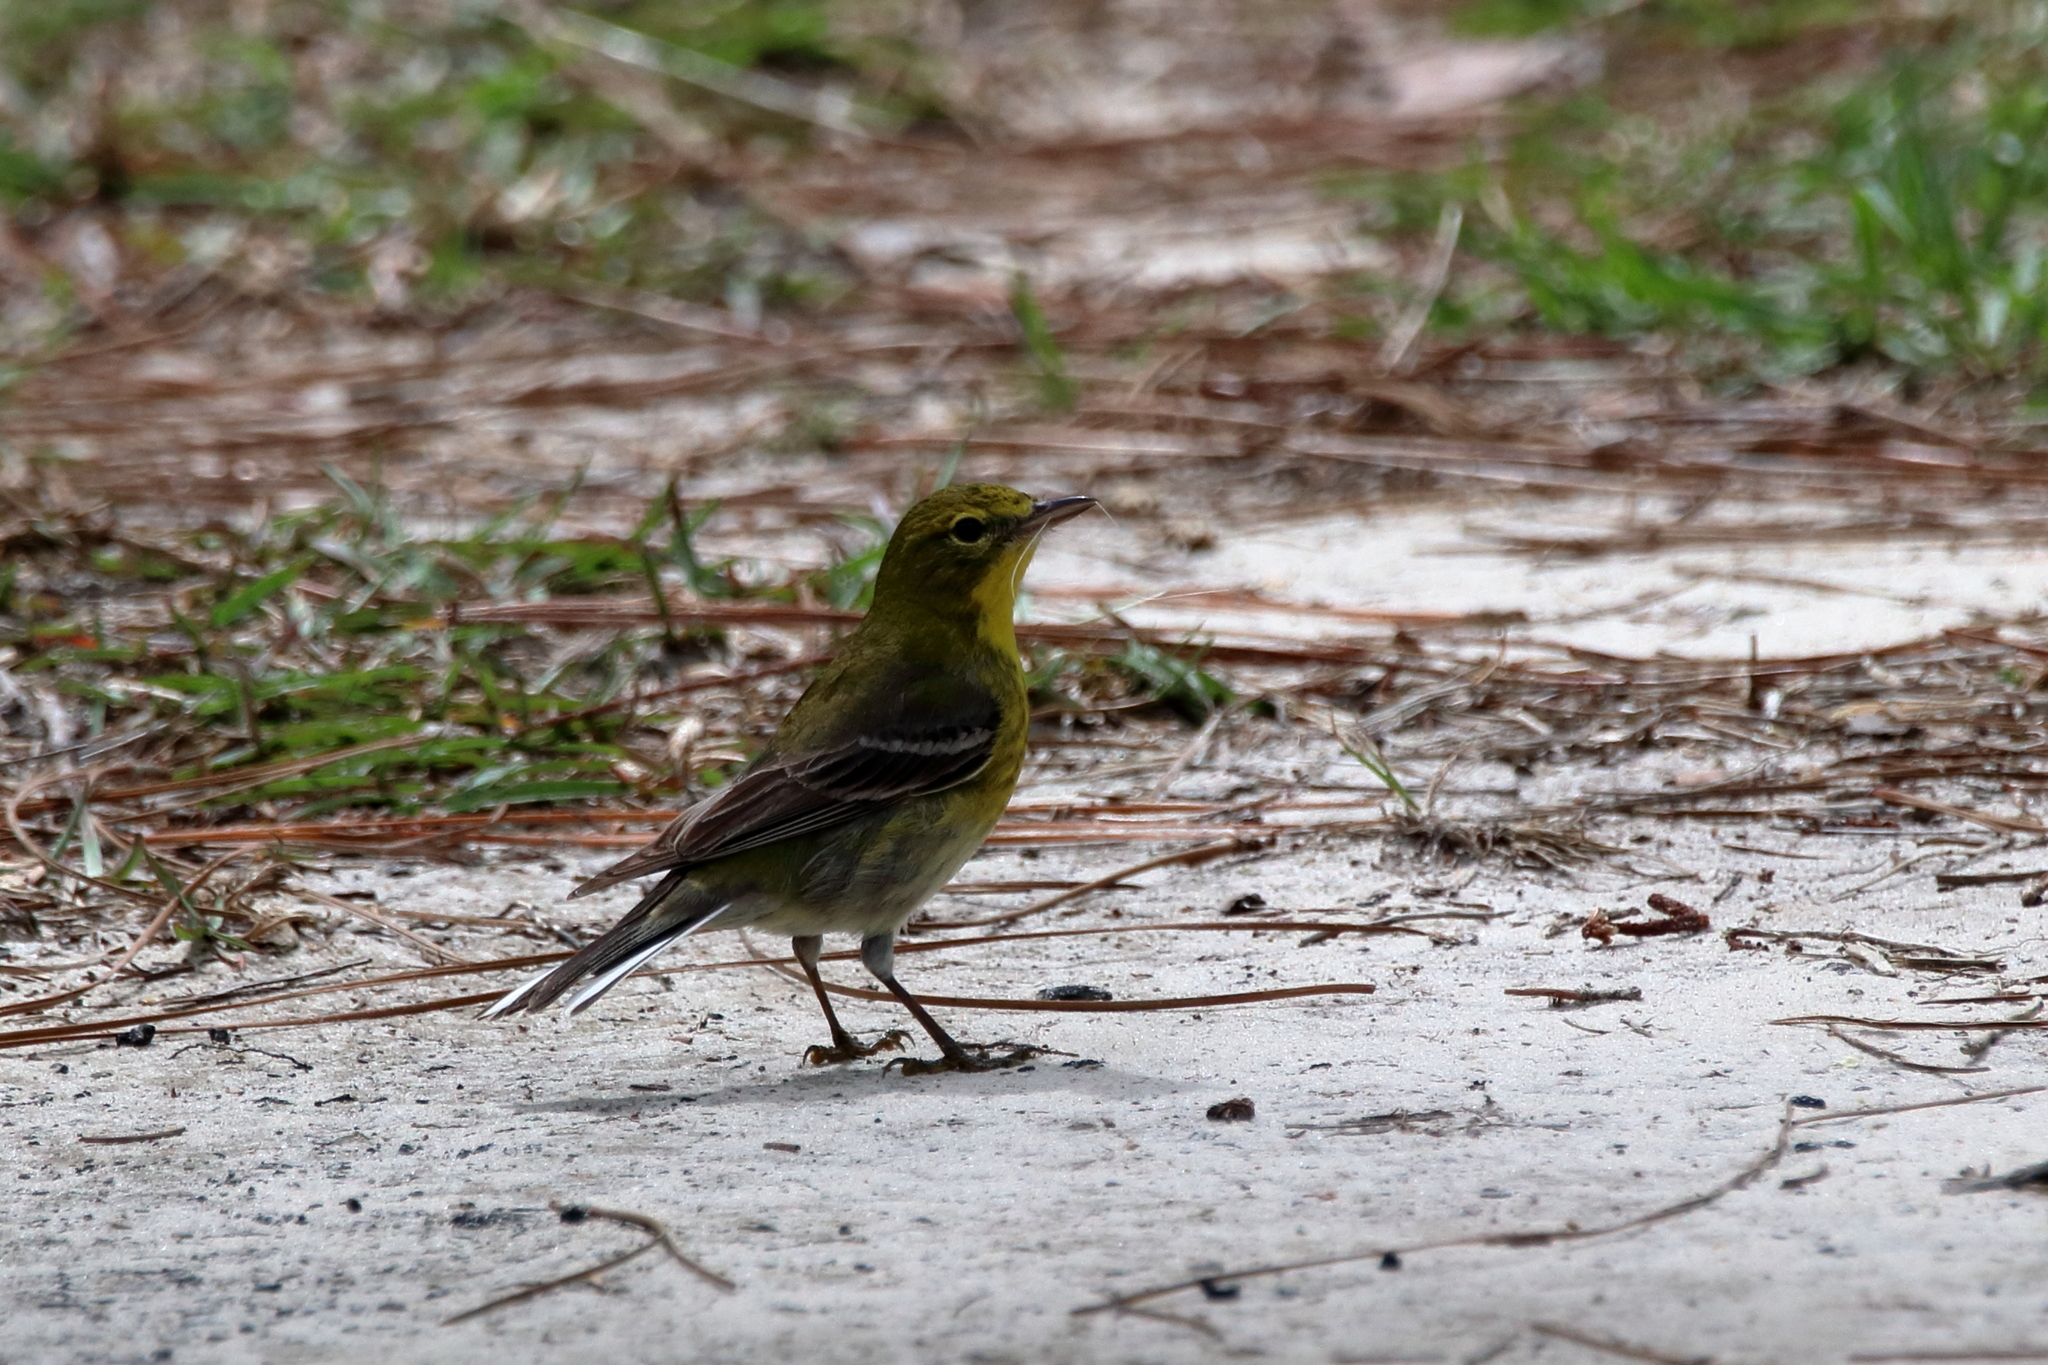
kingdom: Animalia
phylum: Chordata
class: Aves
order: Passeriformes
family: Parulidae
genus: Setophaga
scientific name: Setophaga pinus
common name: Pine warbler
